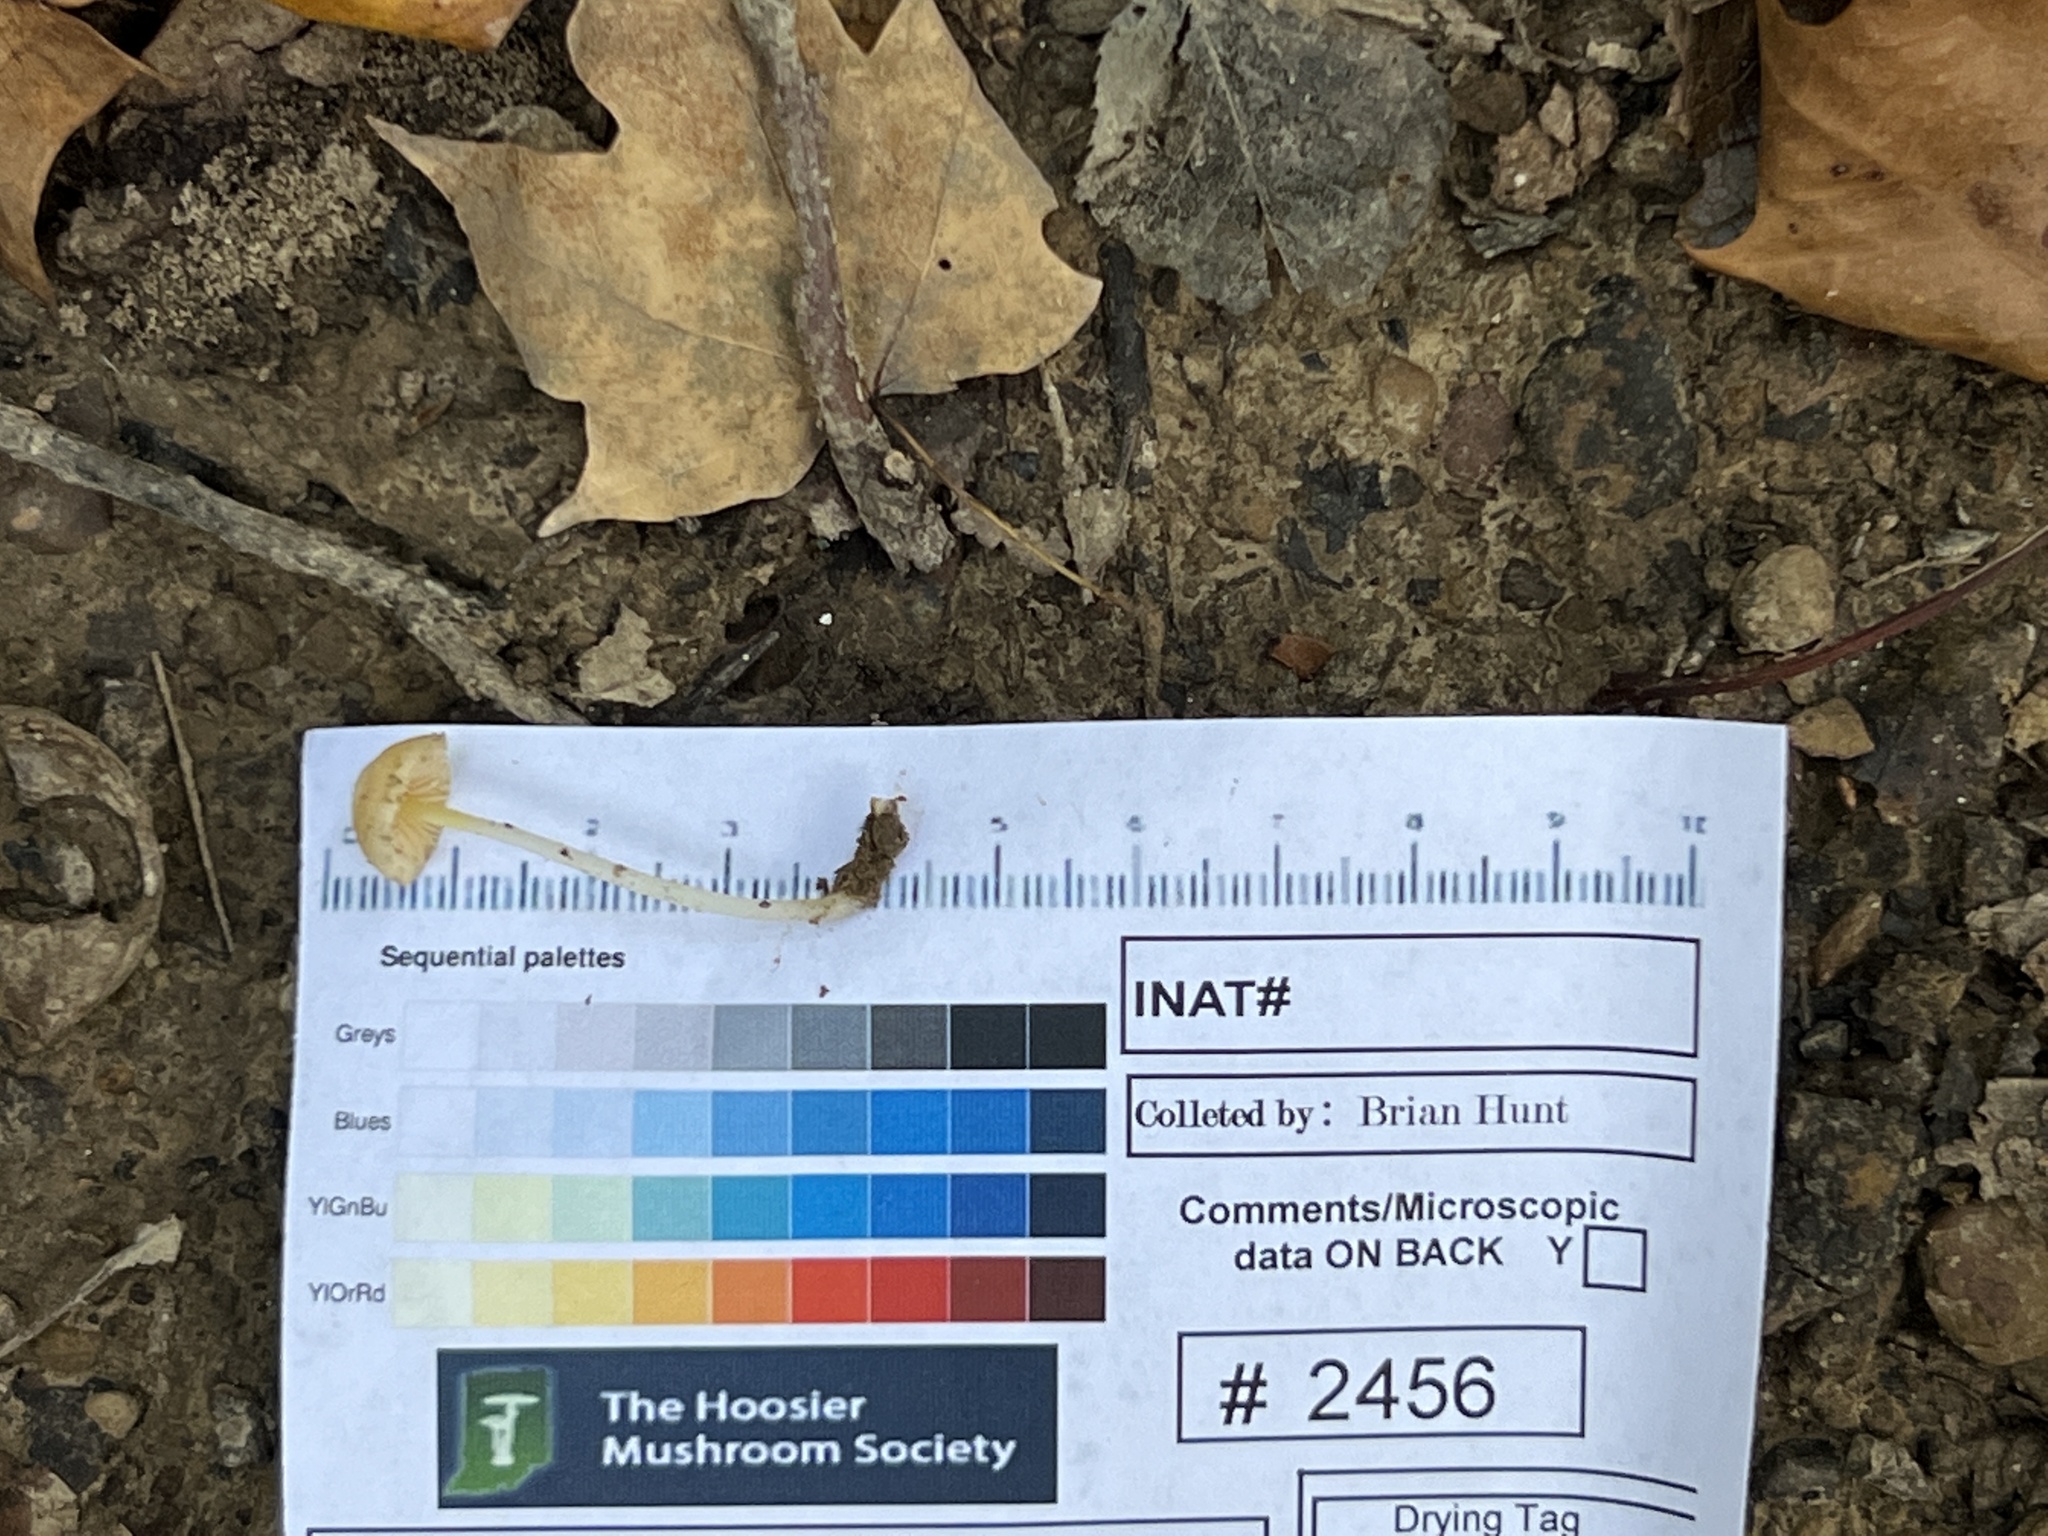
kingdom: Fungi
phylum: Basidiomycota
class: Agaricomycetes
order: Agaricales
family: Mycenaceae
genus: Mycena
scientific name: Mycena crocea
